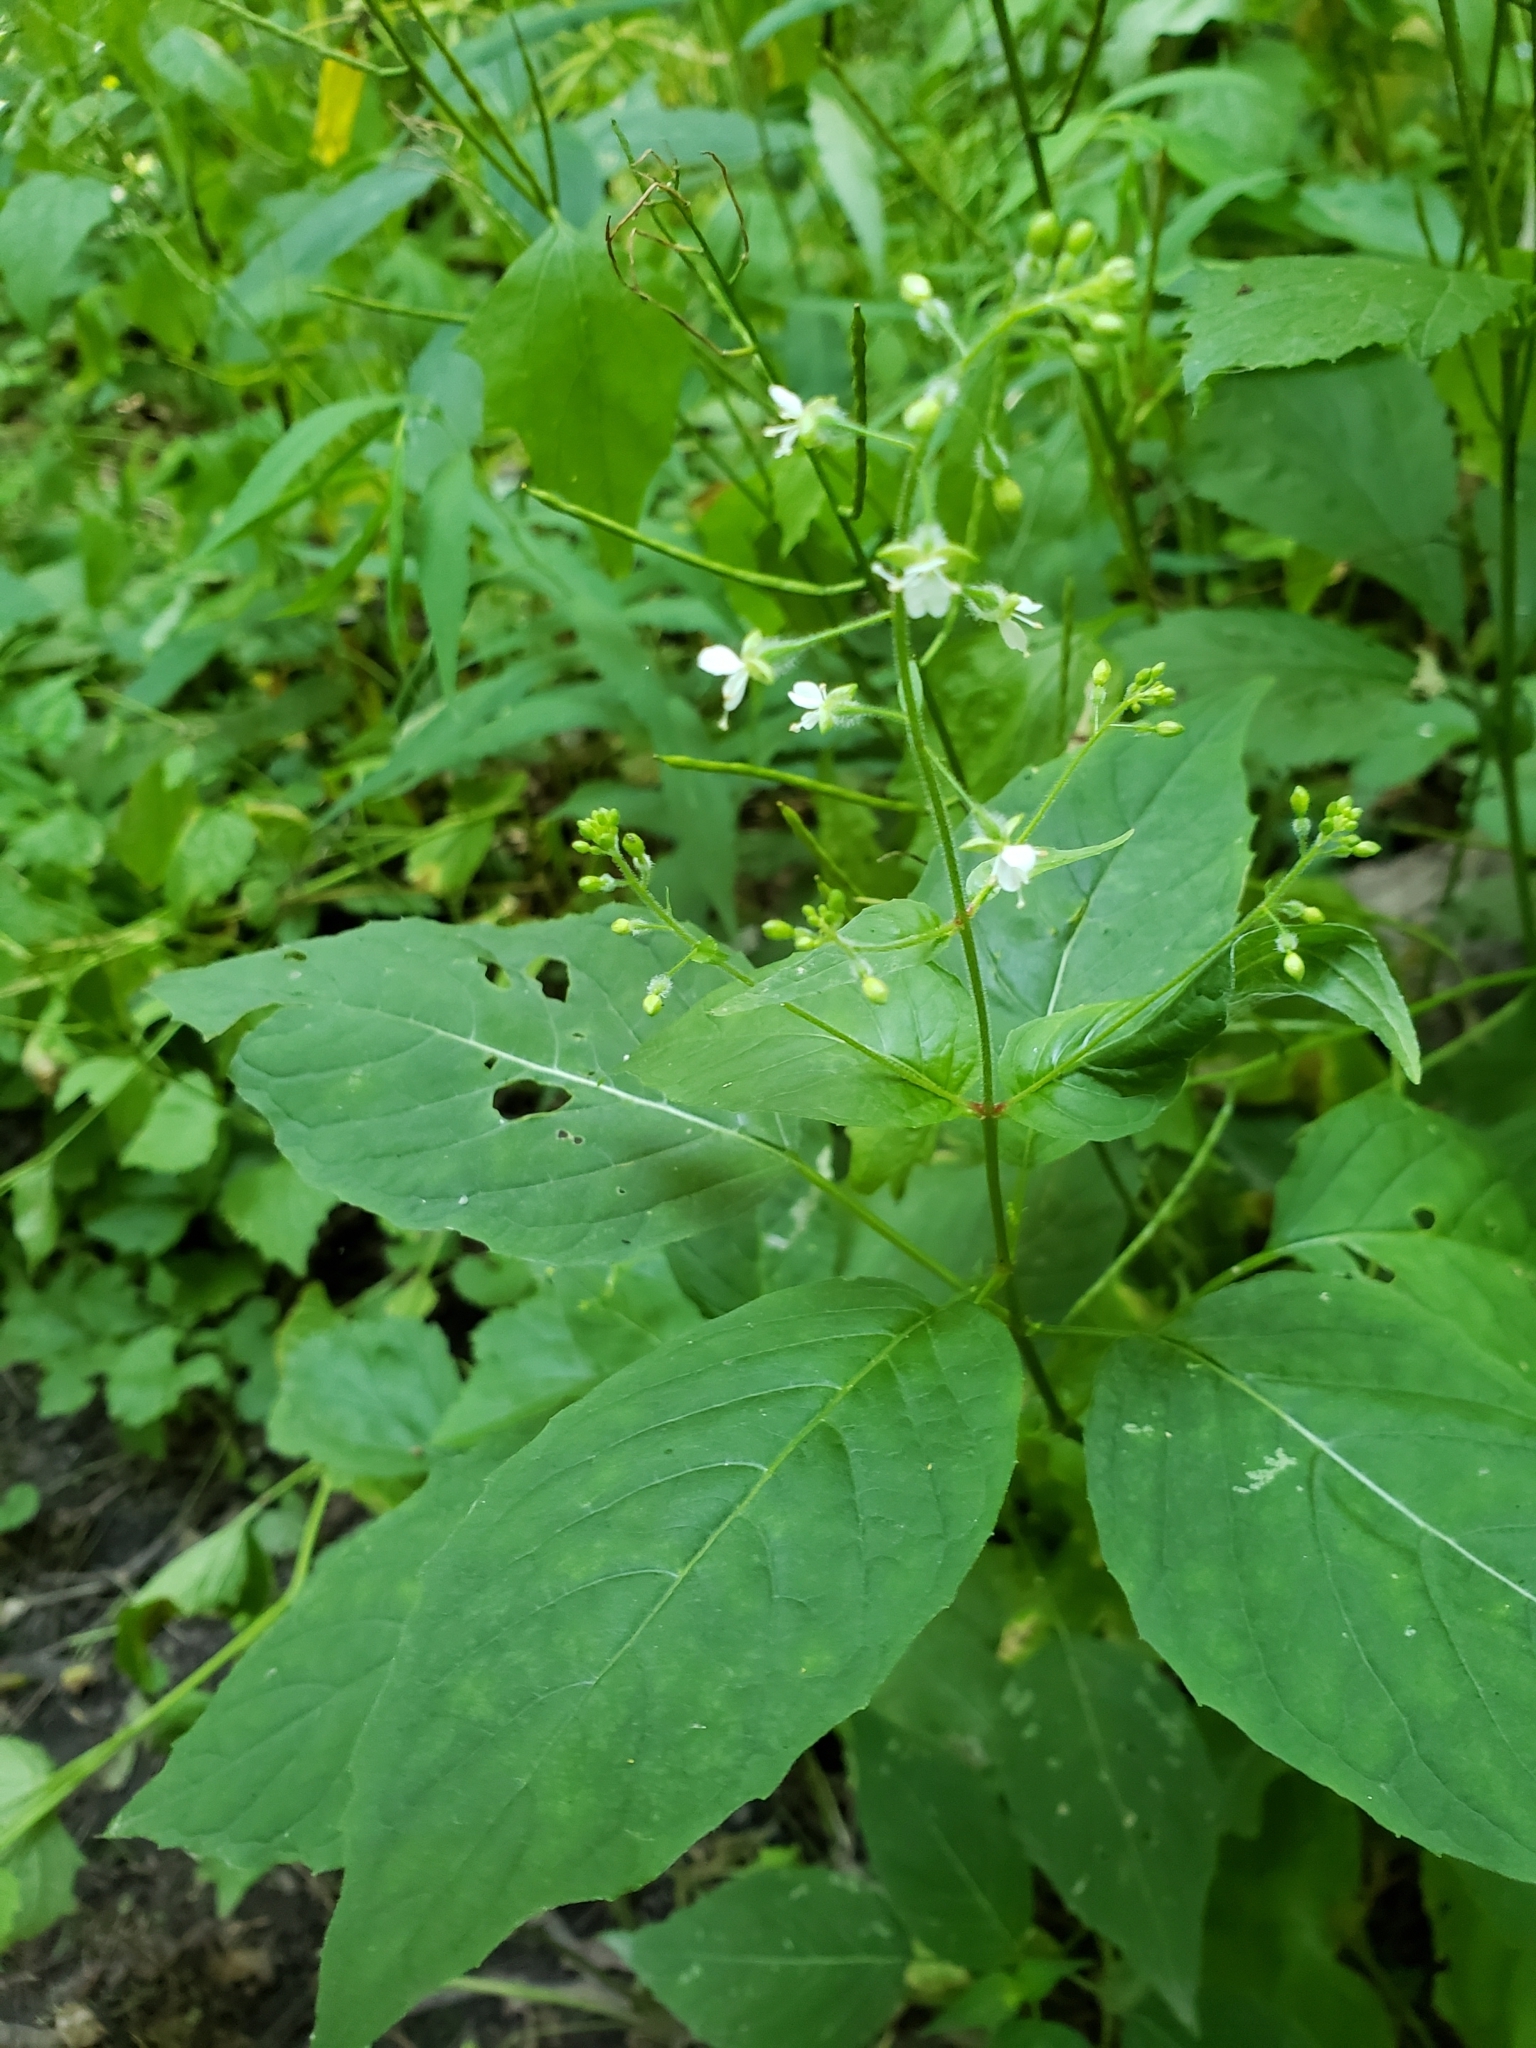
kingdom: Plantae
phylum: Tracheophyta
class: Magnoliopsida
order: Myrtales
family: Onagraceae
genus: Circaea
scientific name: Circaea canadensis
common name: Broad-leaved enchanter's nightshade
